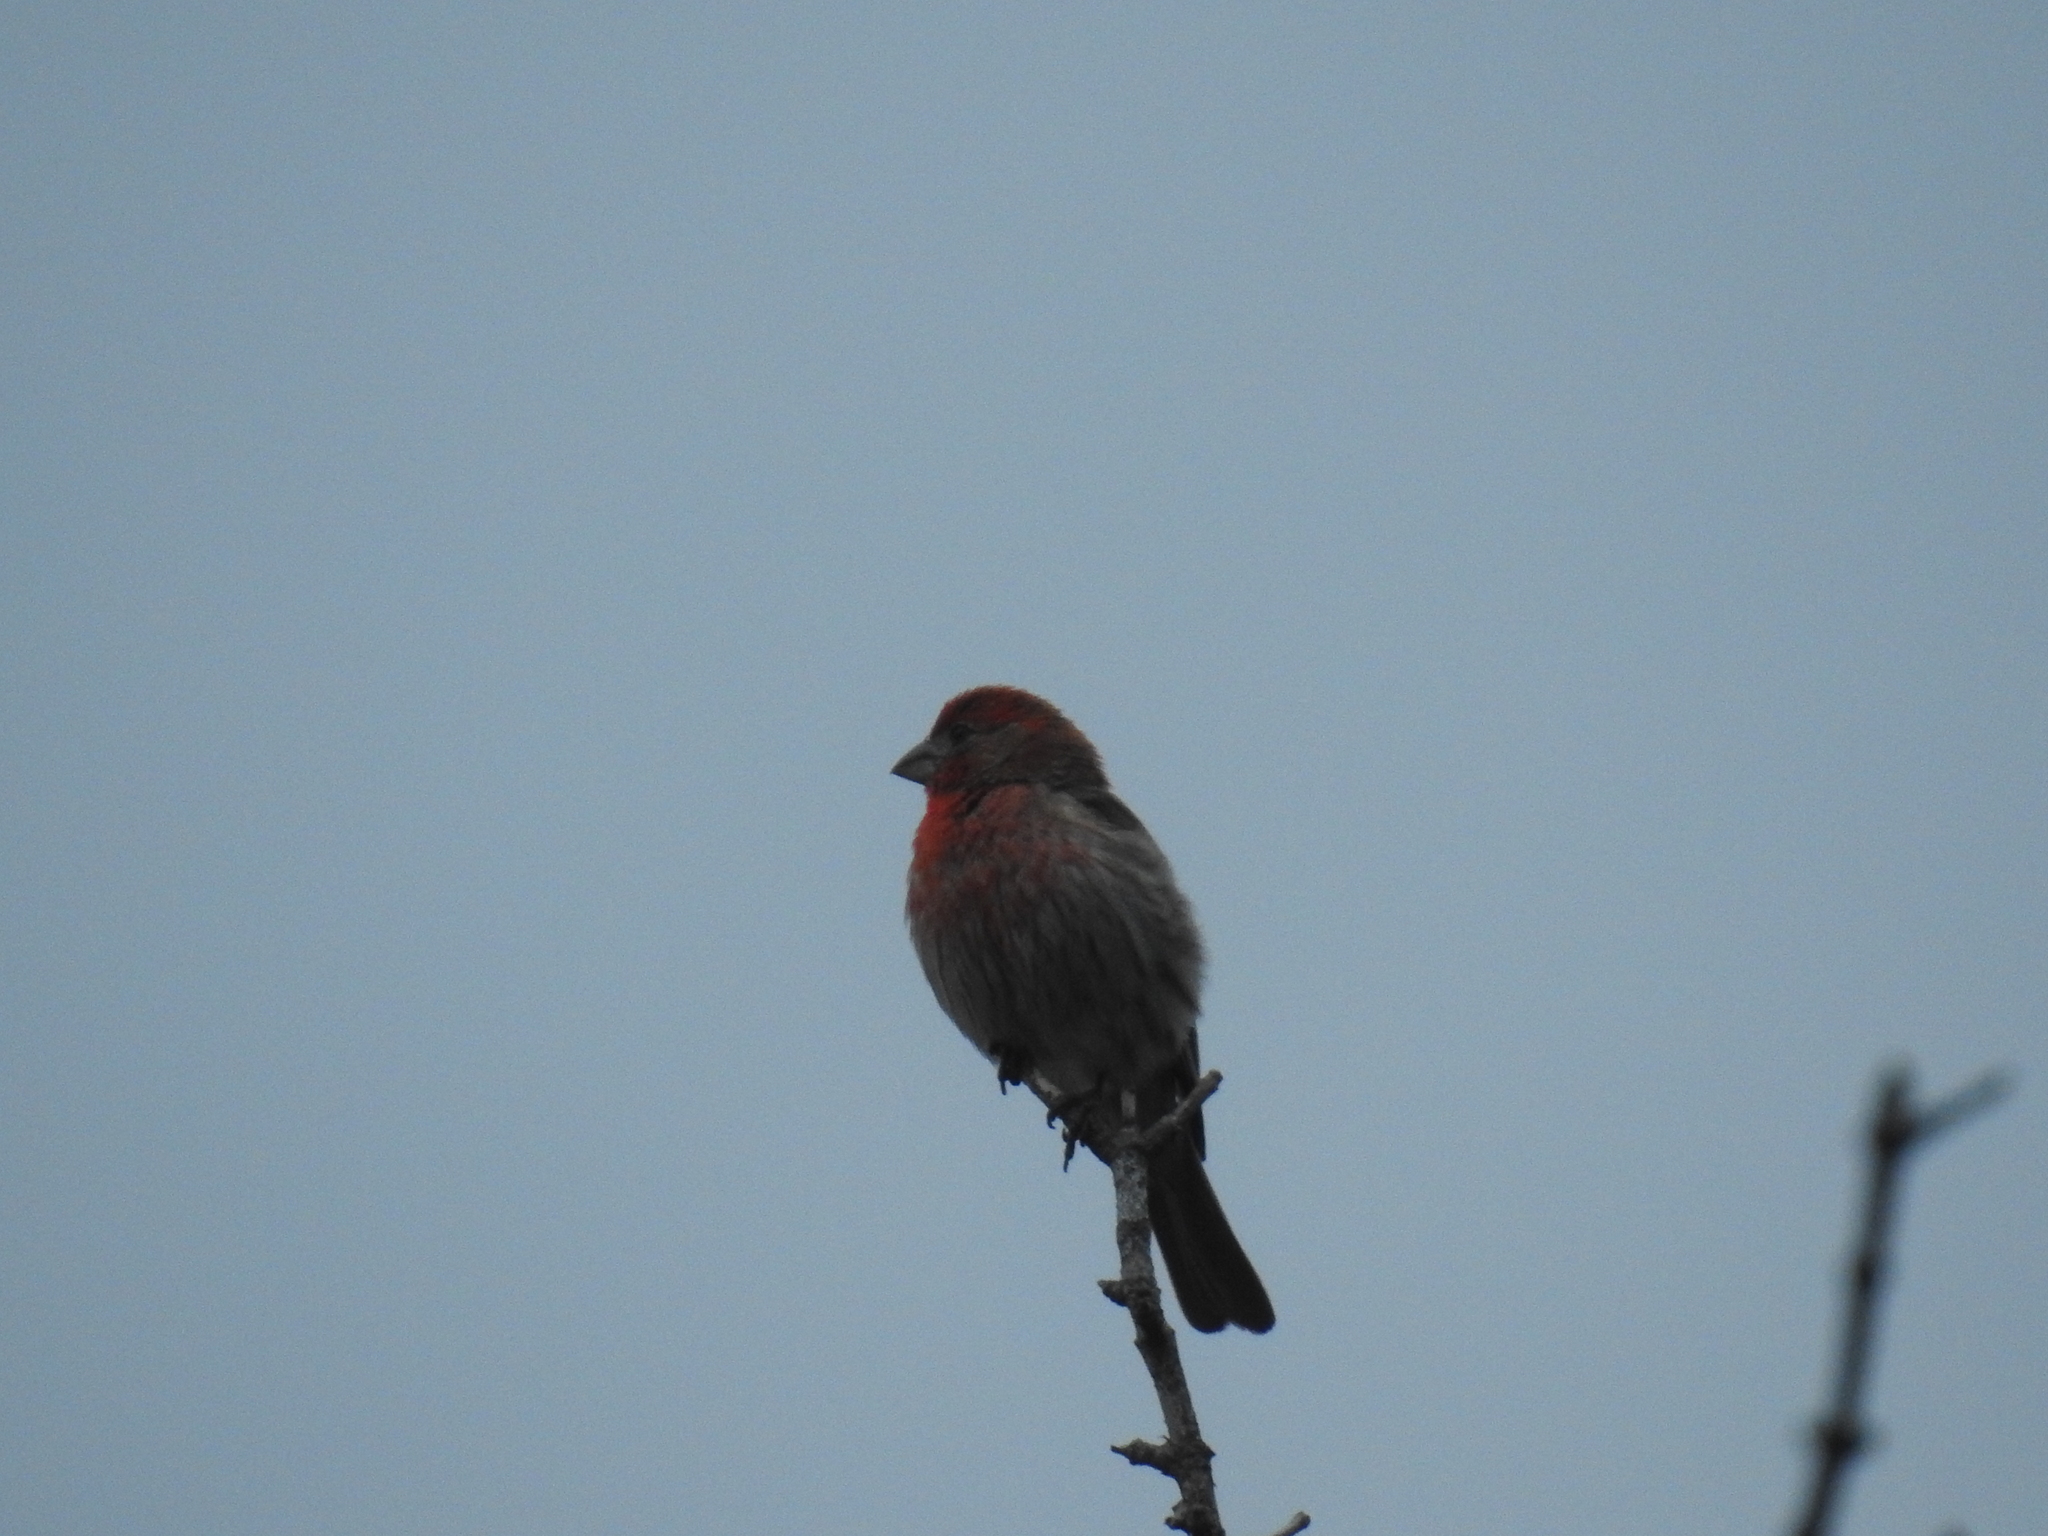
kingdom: Animalia
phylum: Chordata
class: Aves
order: Passeriformes
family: Fringillidae
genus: Haemorhous
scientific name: Haemorhous mexicanus
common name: House finch
